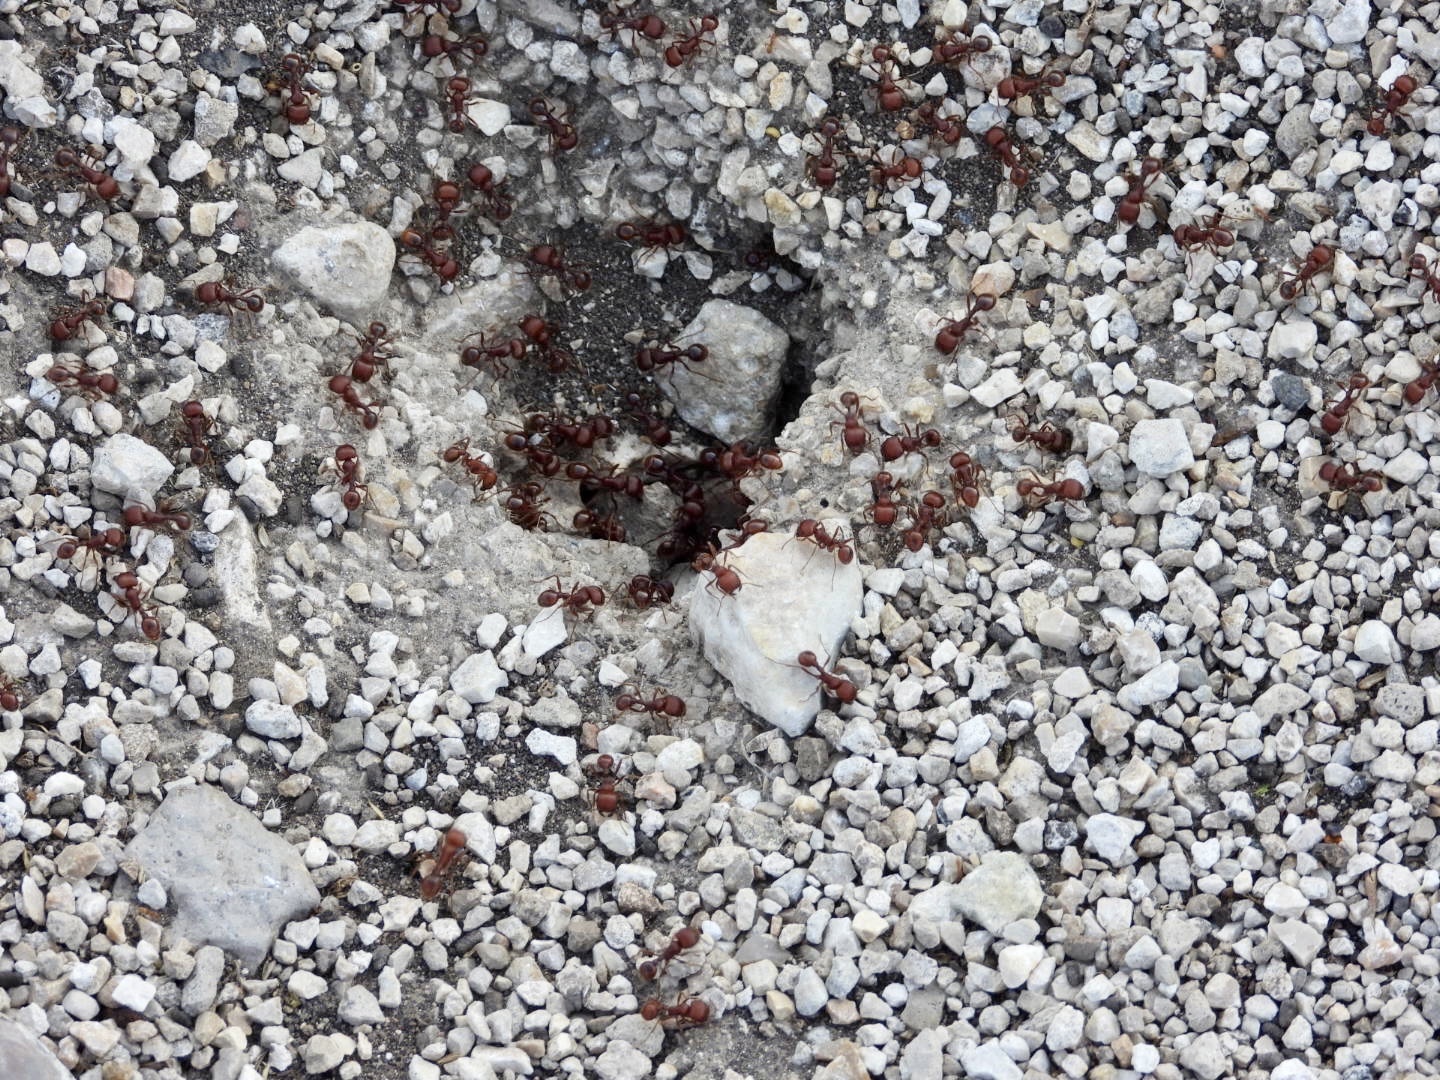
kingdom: Animalia
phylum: Arthropoda
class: Insecta
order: Hymenoptera
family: Formicidae
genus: Pogonomyrmex
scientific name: Pogonomyrmex barbatus
